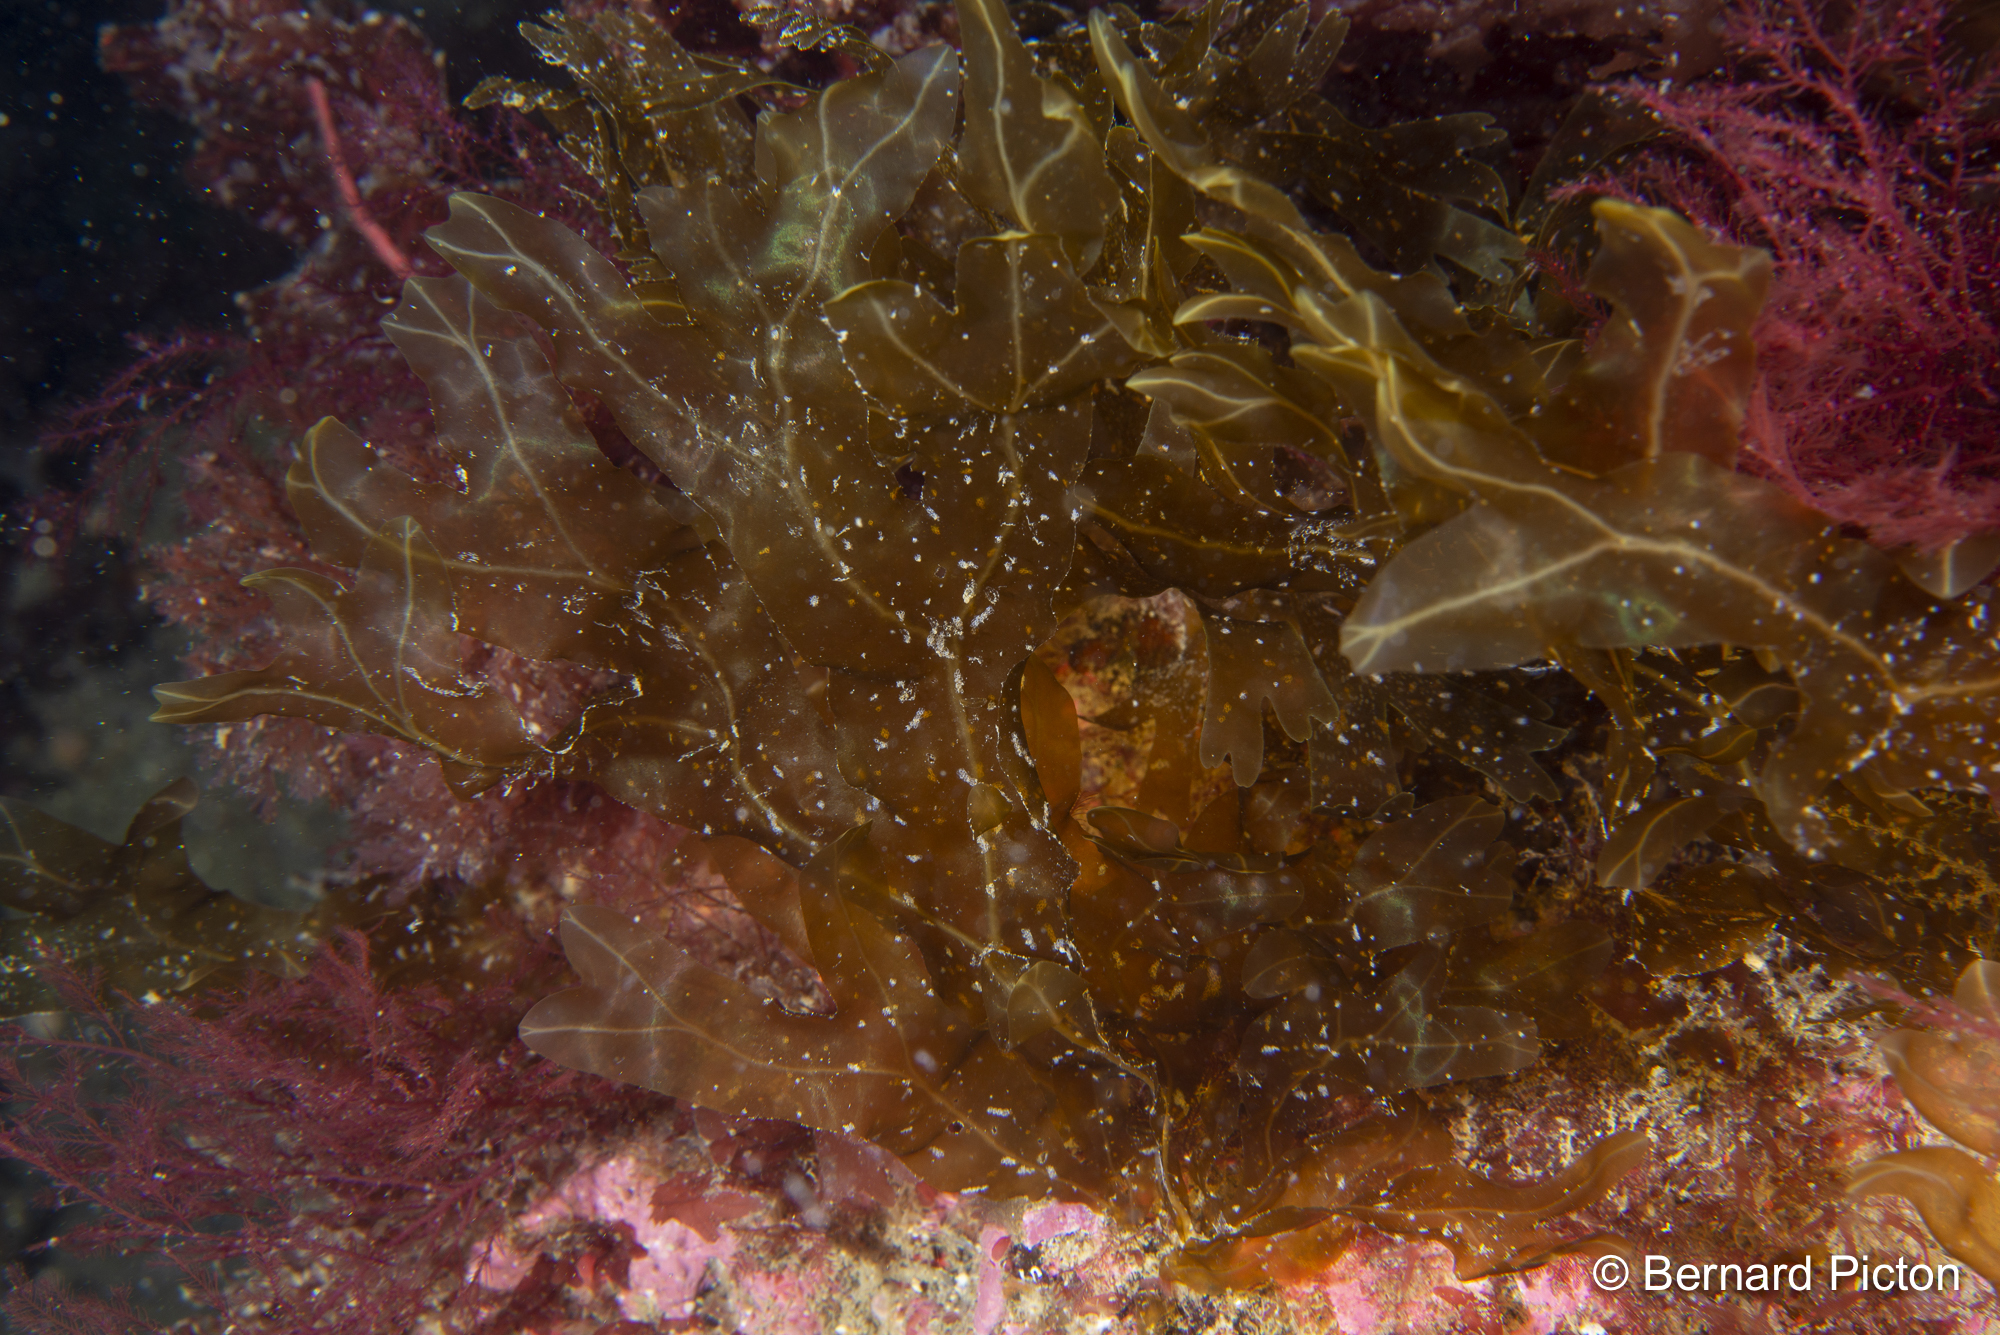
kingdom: Chromista
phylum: Ochrophyta
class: Phaeophyceae
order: Dictyotales
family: Dictyotaceae
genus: Dictyopteris
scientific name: Dictyopteris polypodioides
